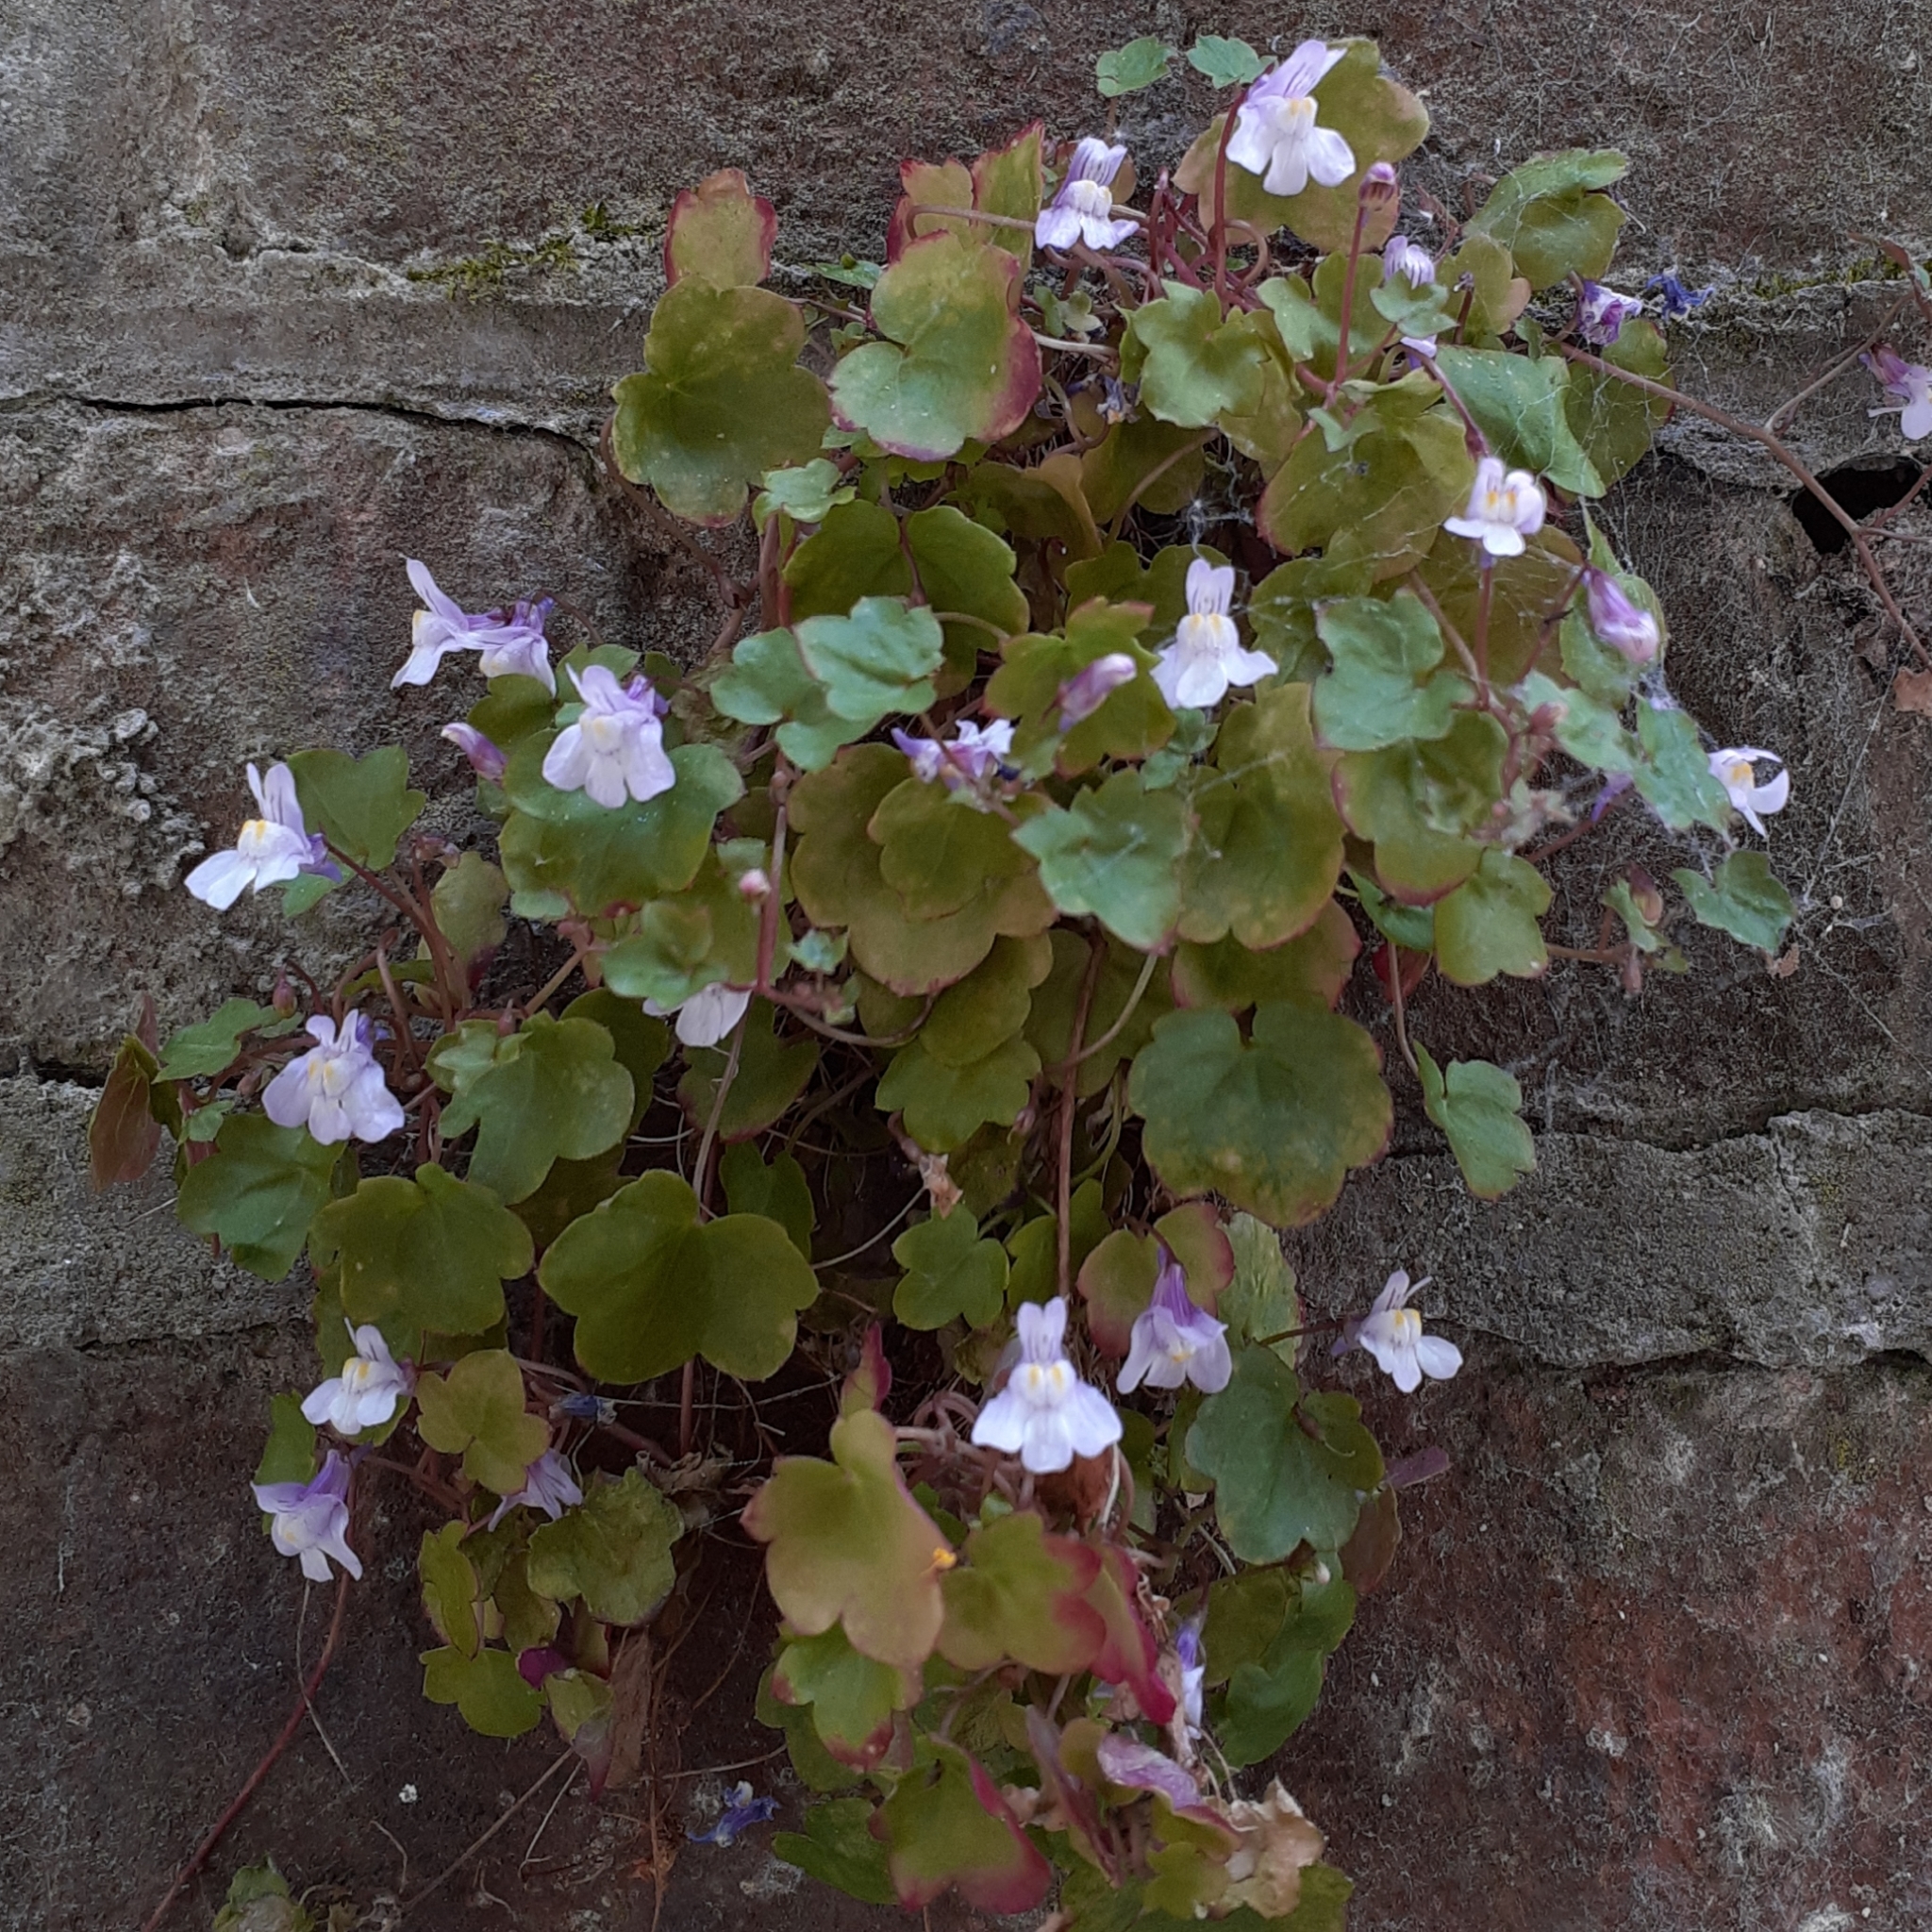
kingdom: Plantae
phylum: Tracheophyta
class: Magnoliopsida
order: Lamiales
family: Plantaginaceae
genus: Cymbalaria
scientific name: Cymbalaria muralis
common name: Ivy-leaved toadflax
